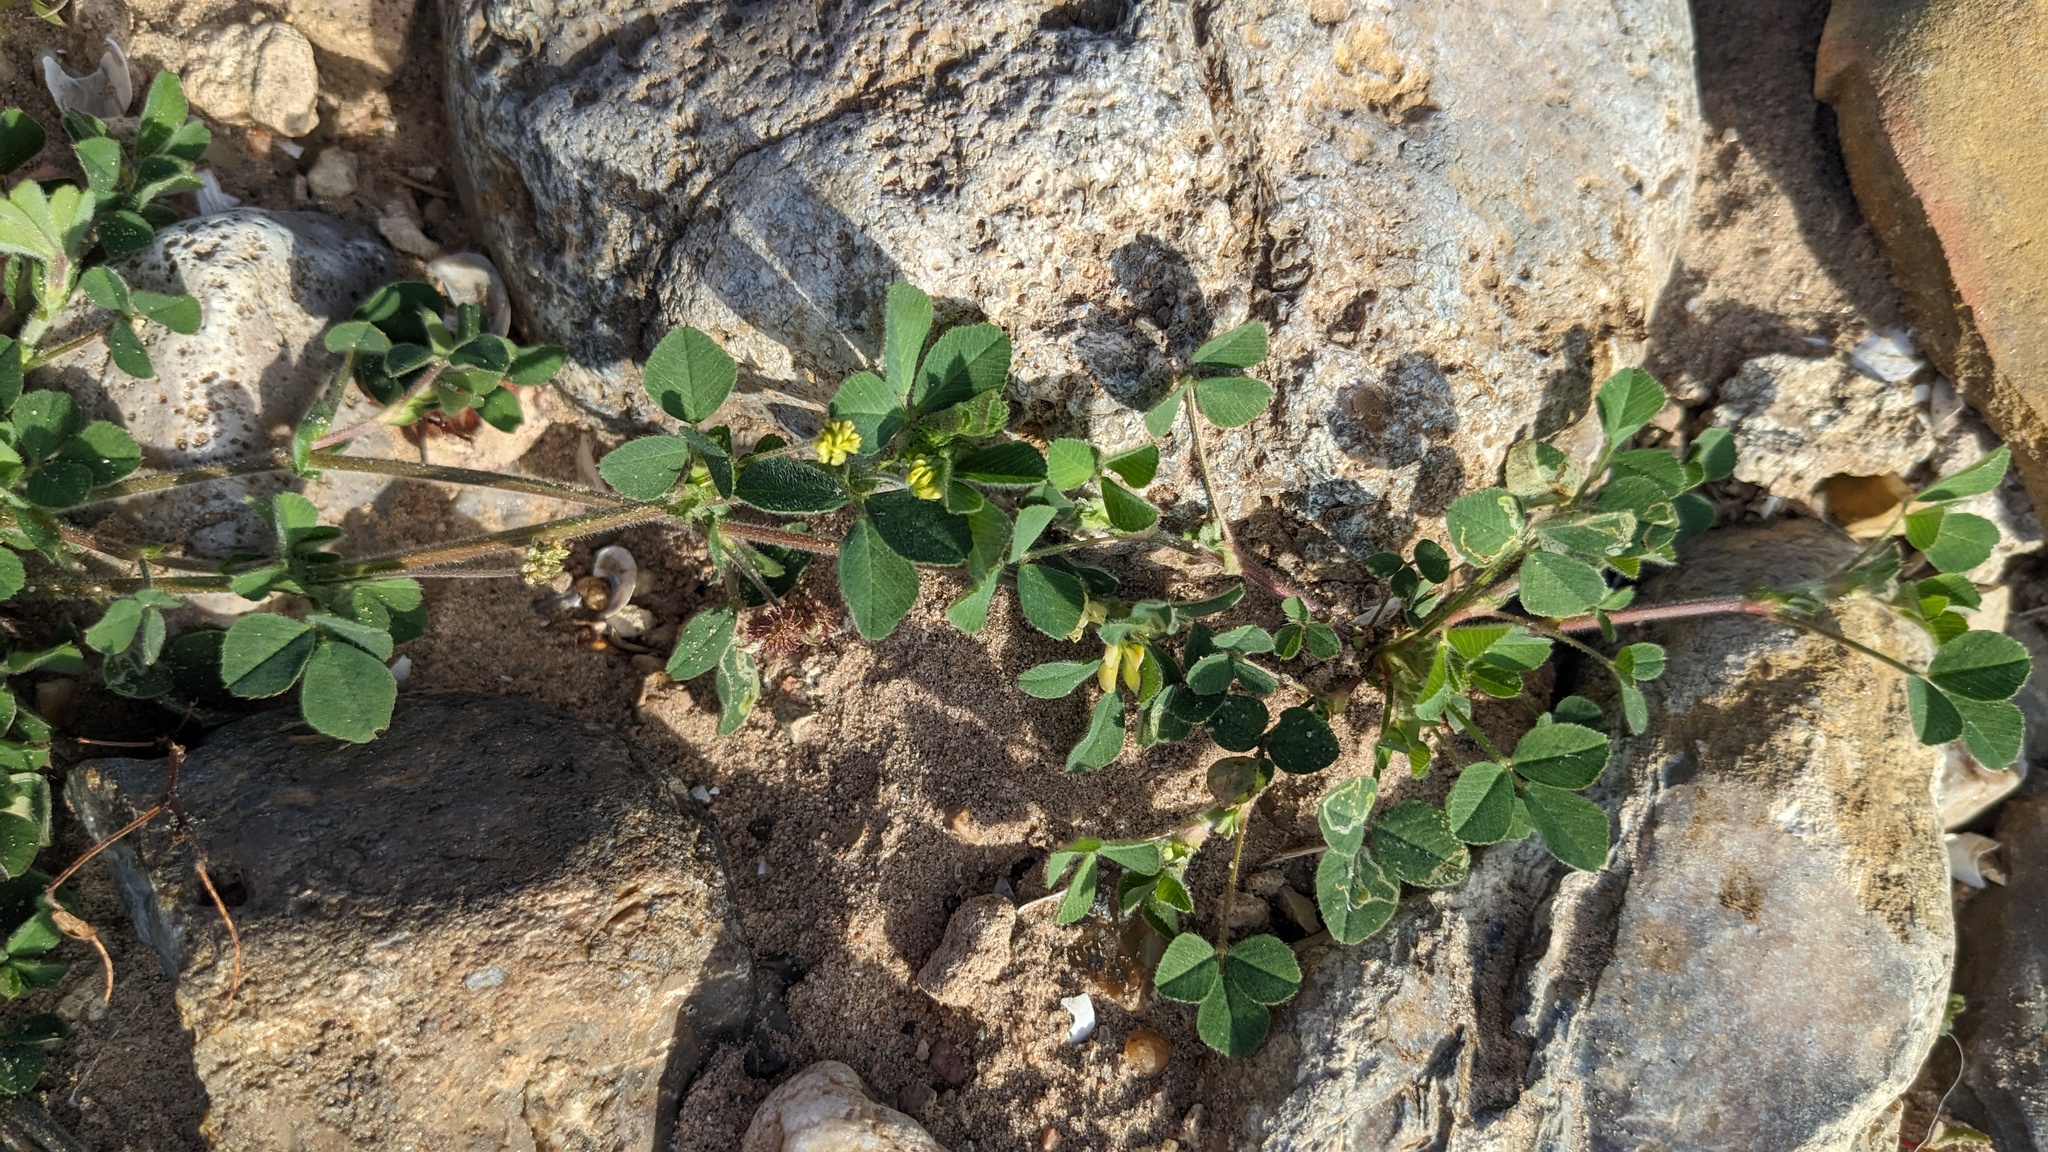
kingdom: Plantae
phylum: Tracheophyta
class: Magnoliopsida
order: Fabales
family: Fabaceae
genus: Medicago
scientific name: Medicago lupulina
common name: Black medick
